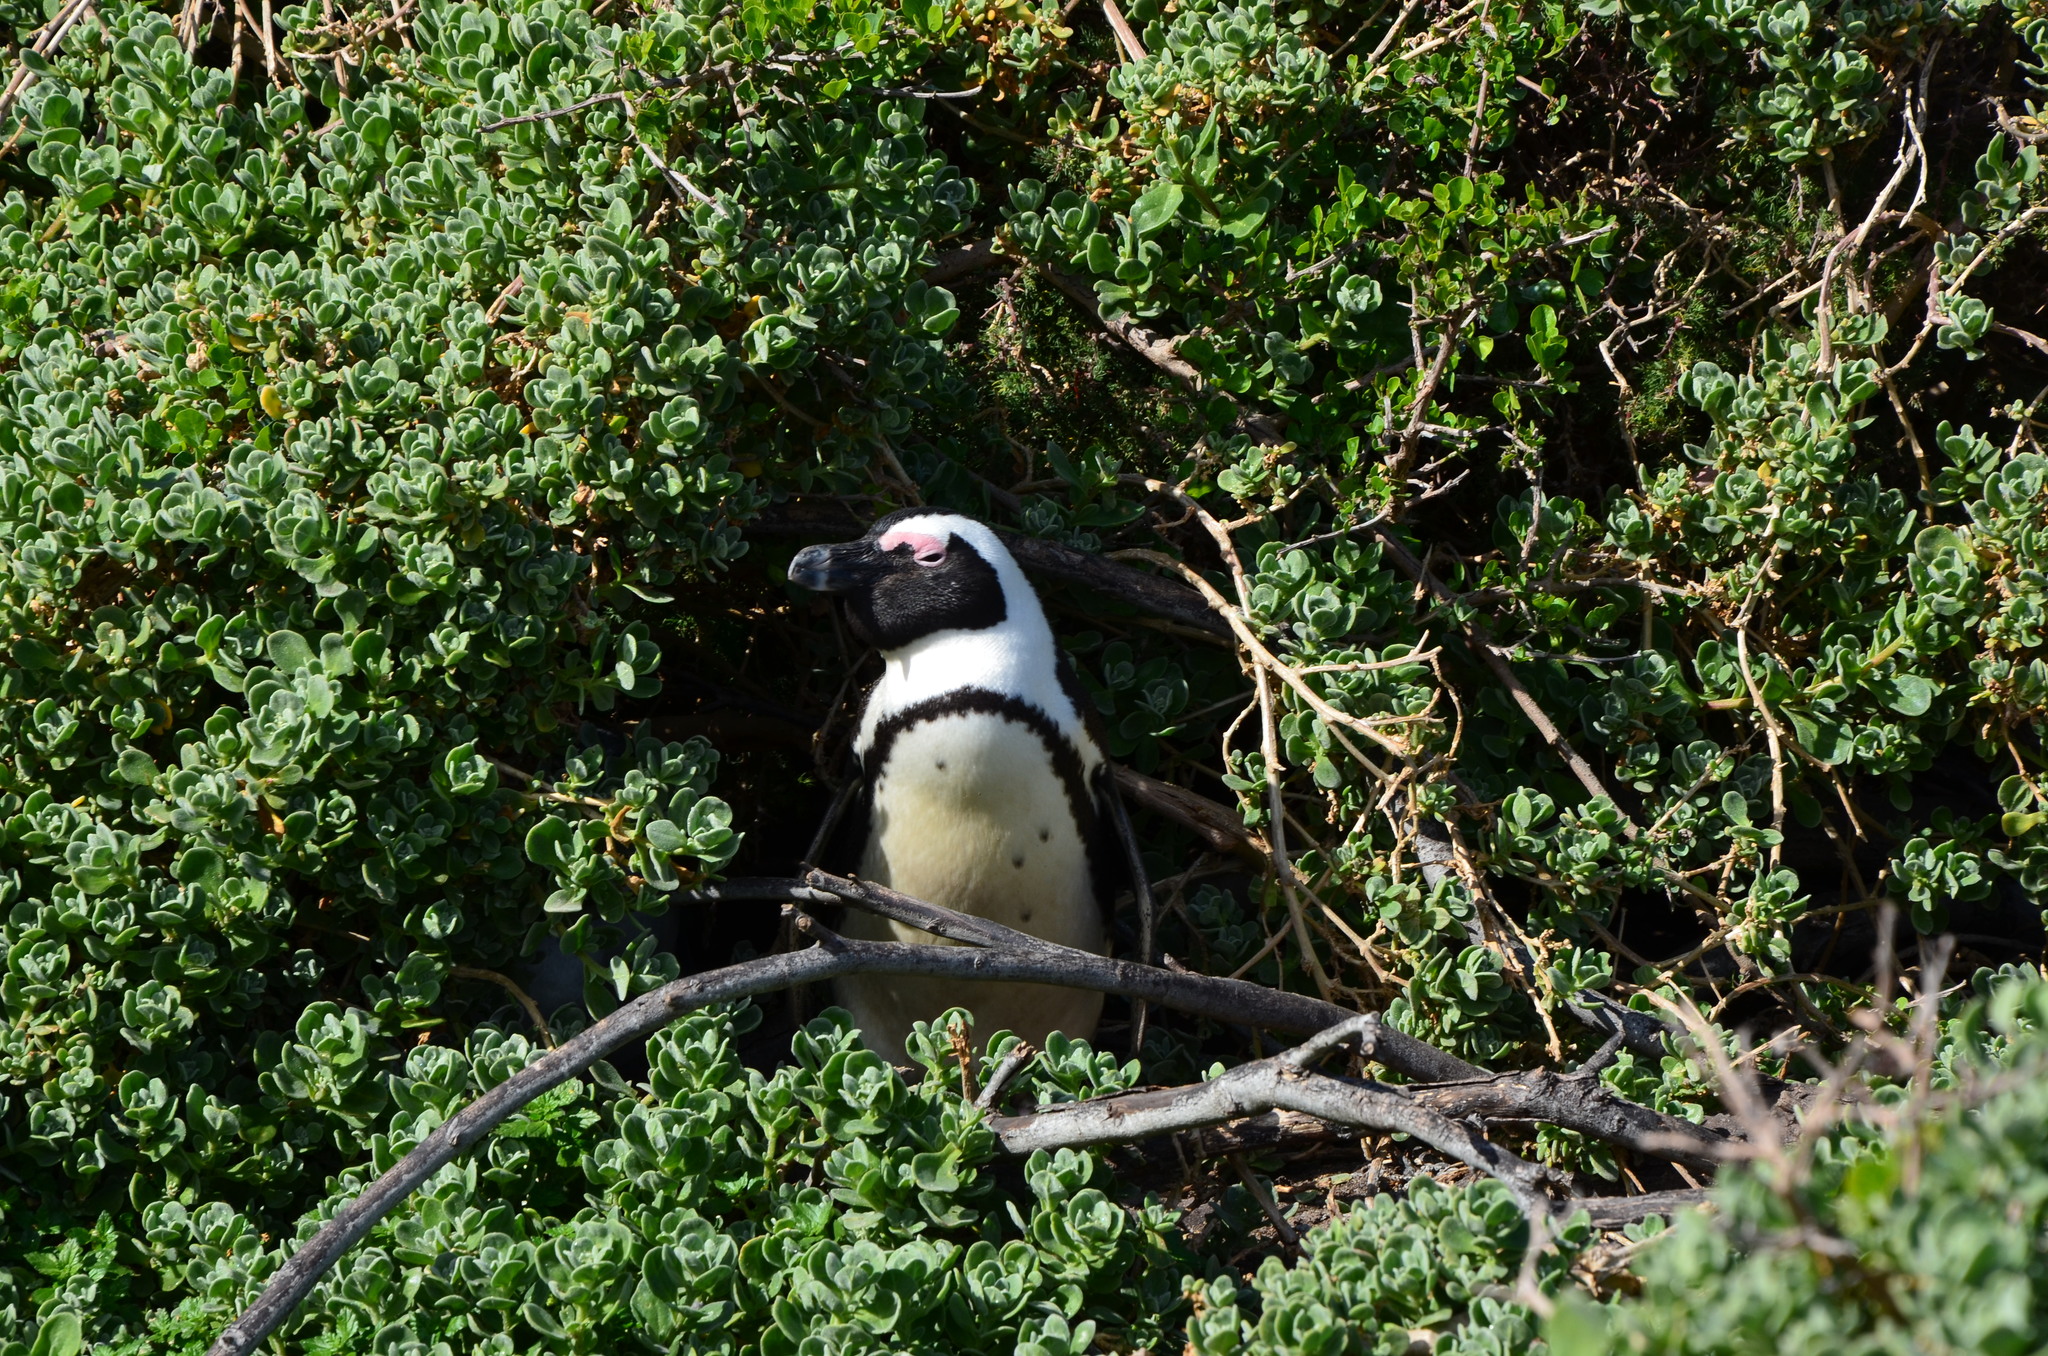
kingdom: Animalia
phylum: Chordata
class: Aves
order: Sphenisciformes
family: Spheniscidae
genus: Spheniscus
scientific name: Spheniscus demersus
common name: African penguin
